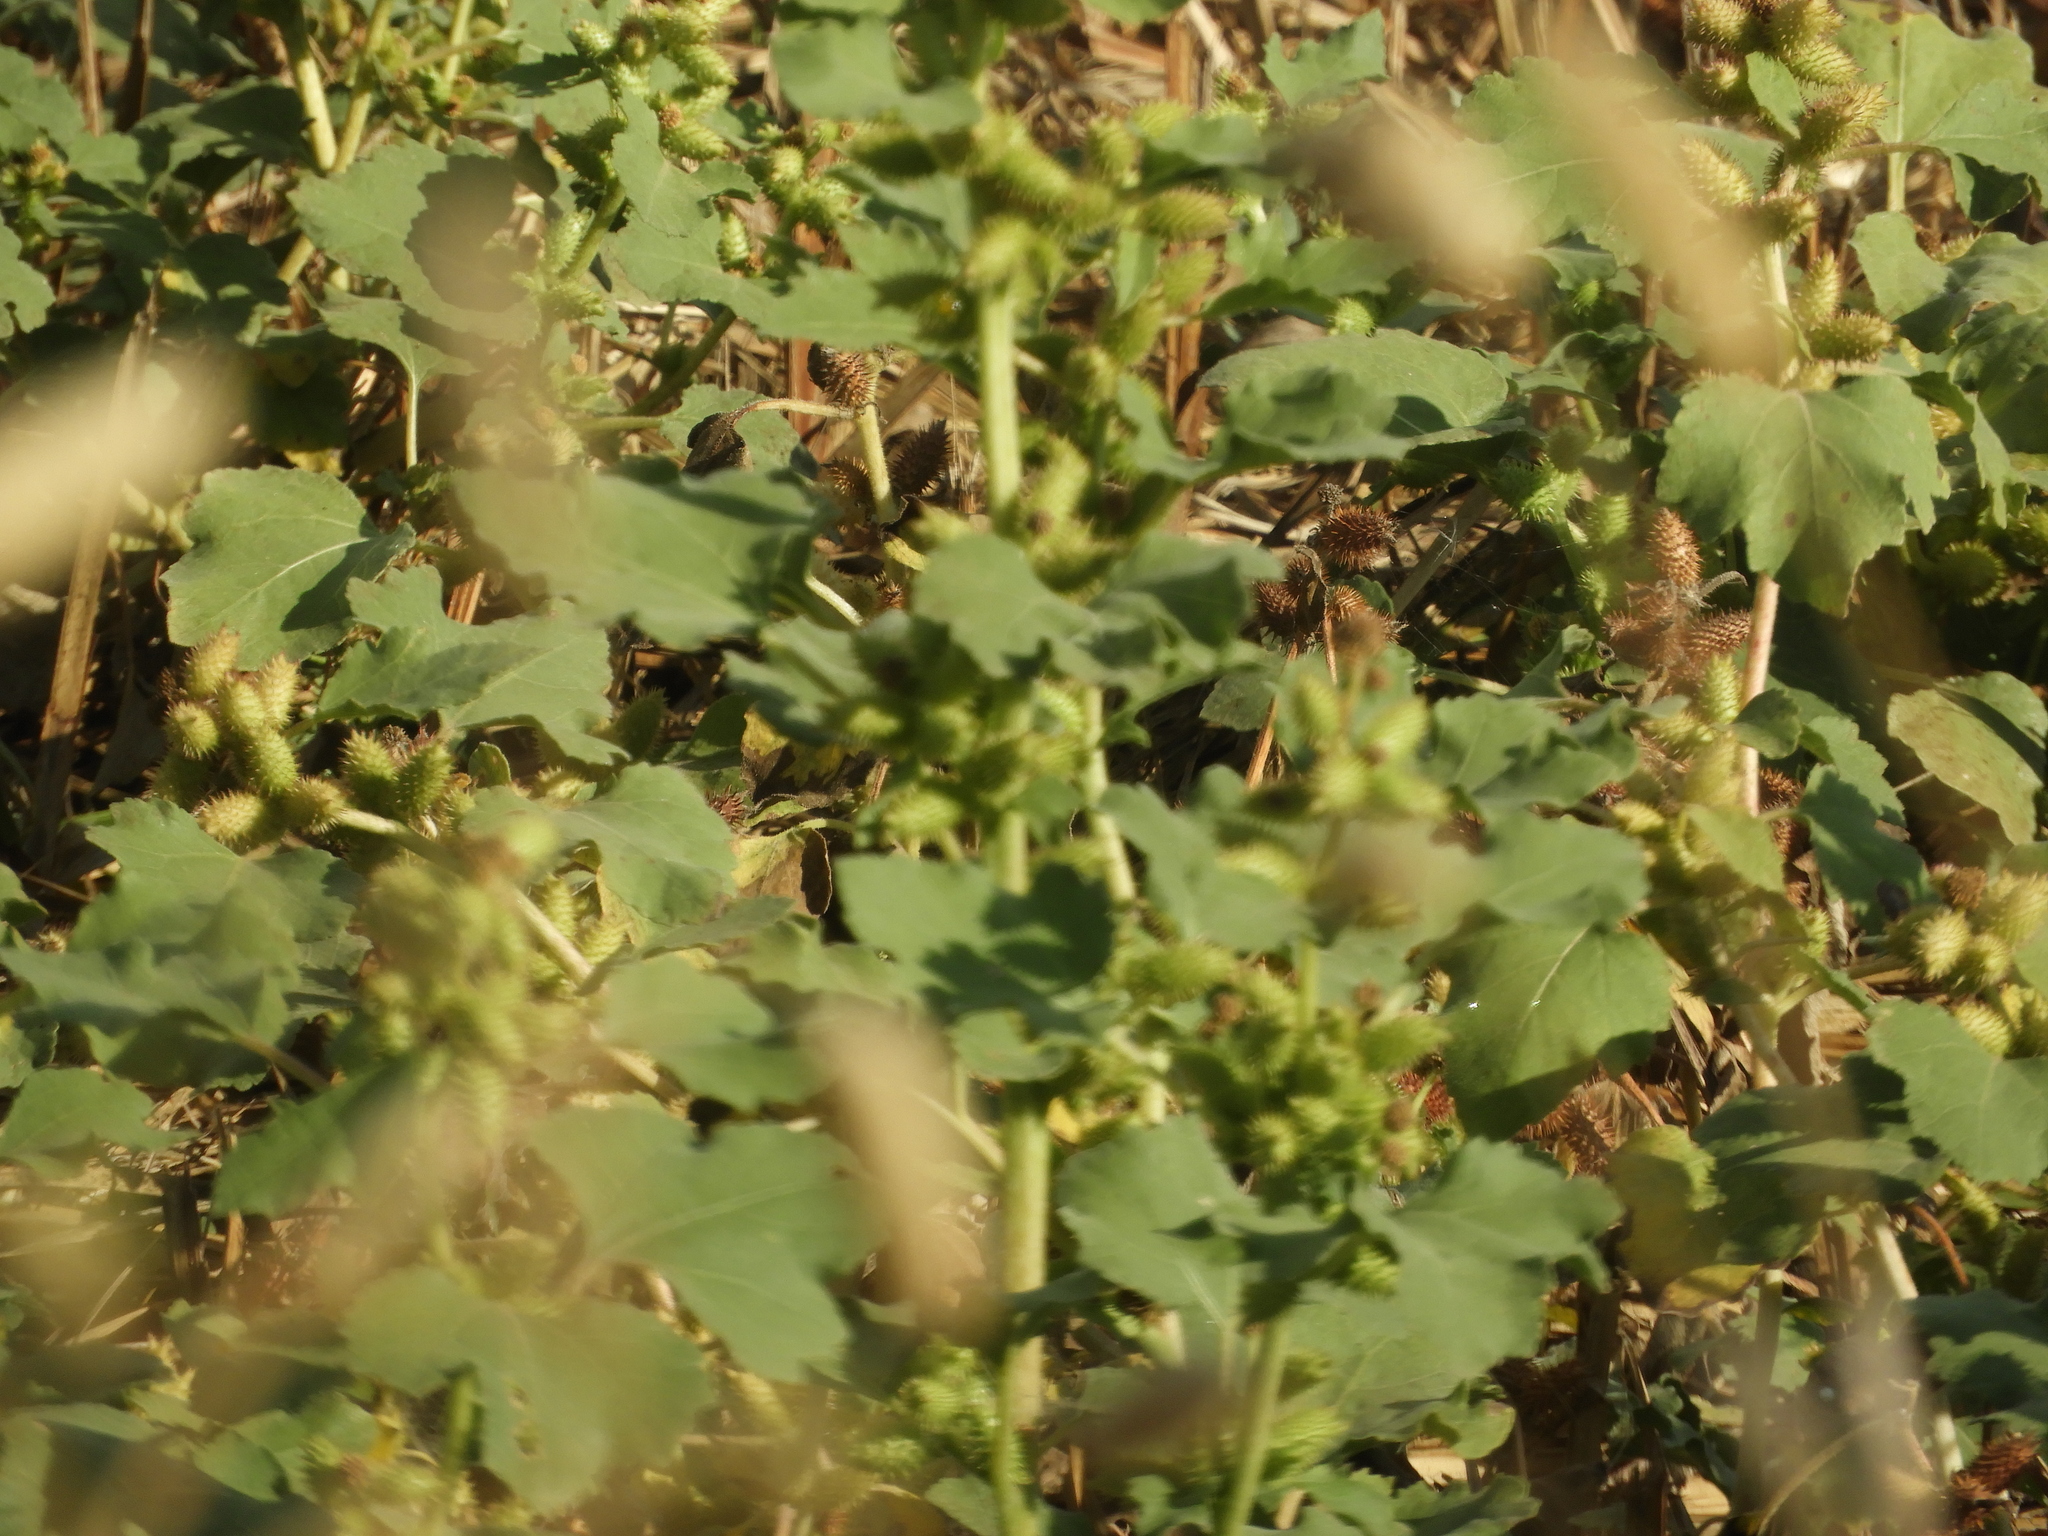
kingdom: Plantae
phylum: Tracheophyta
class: Magnoliopsida
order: Asterales
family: Asteraceae
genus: Xanthium
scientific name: Xanthium strumarium
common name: Rough cocklebur
